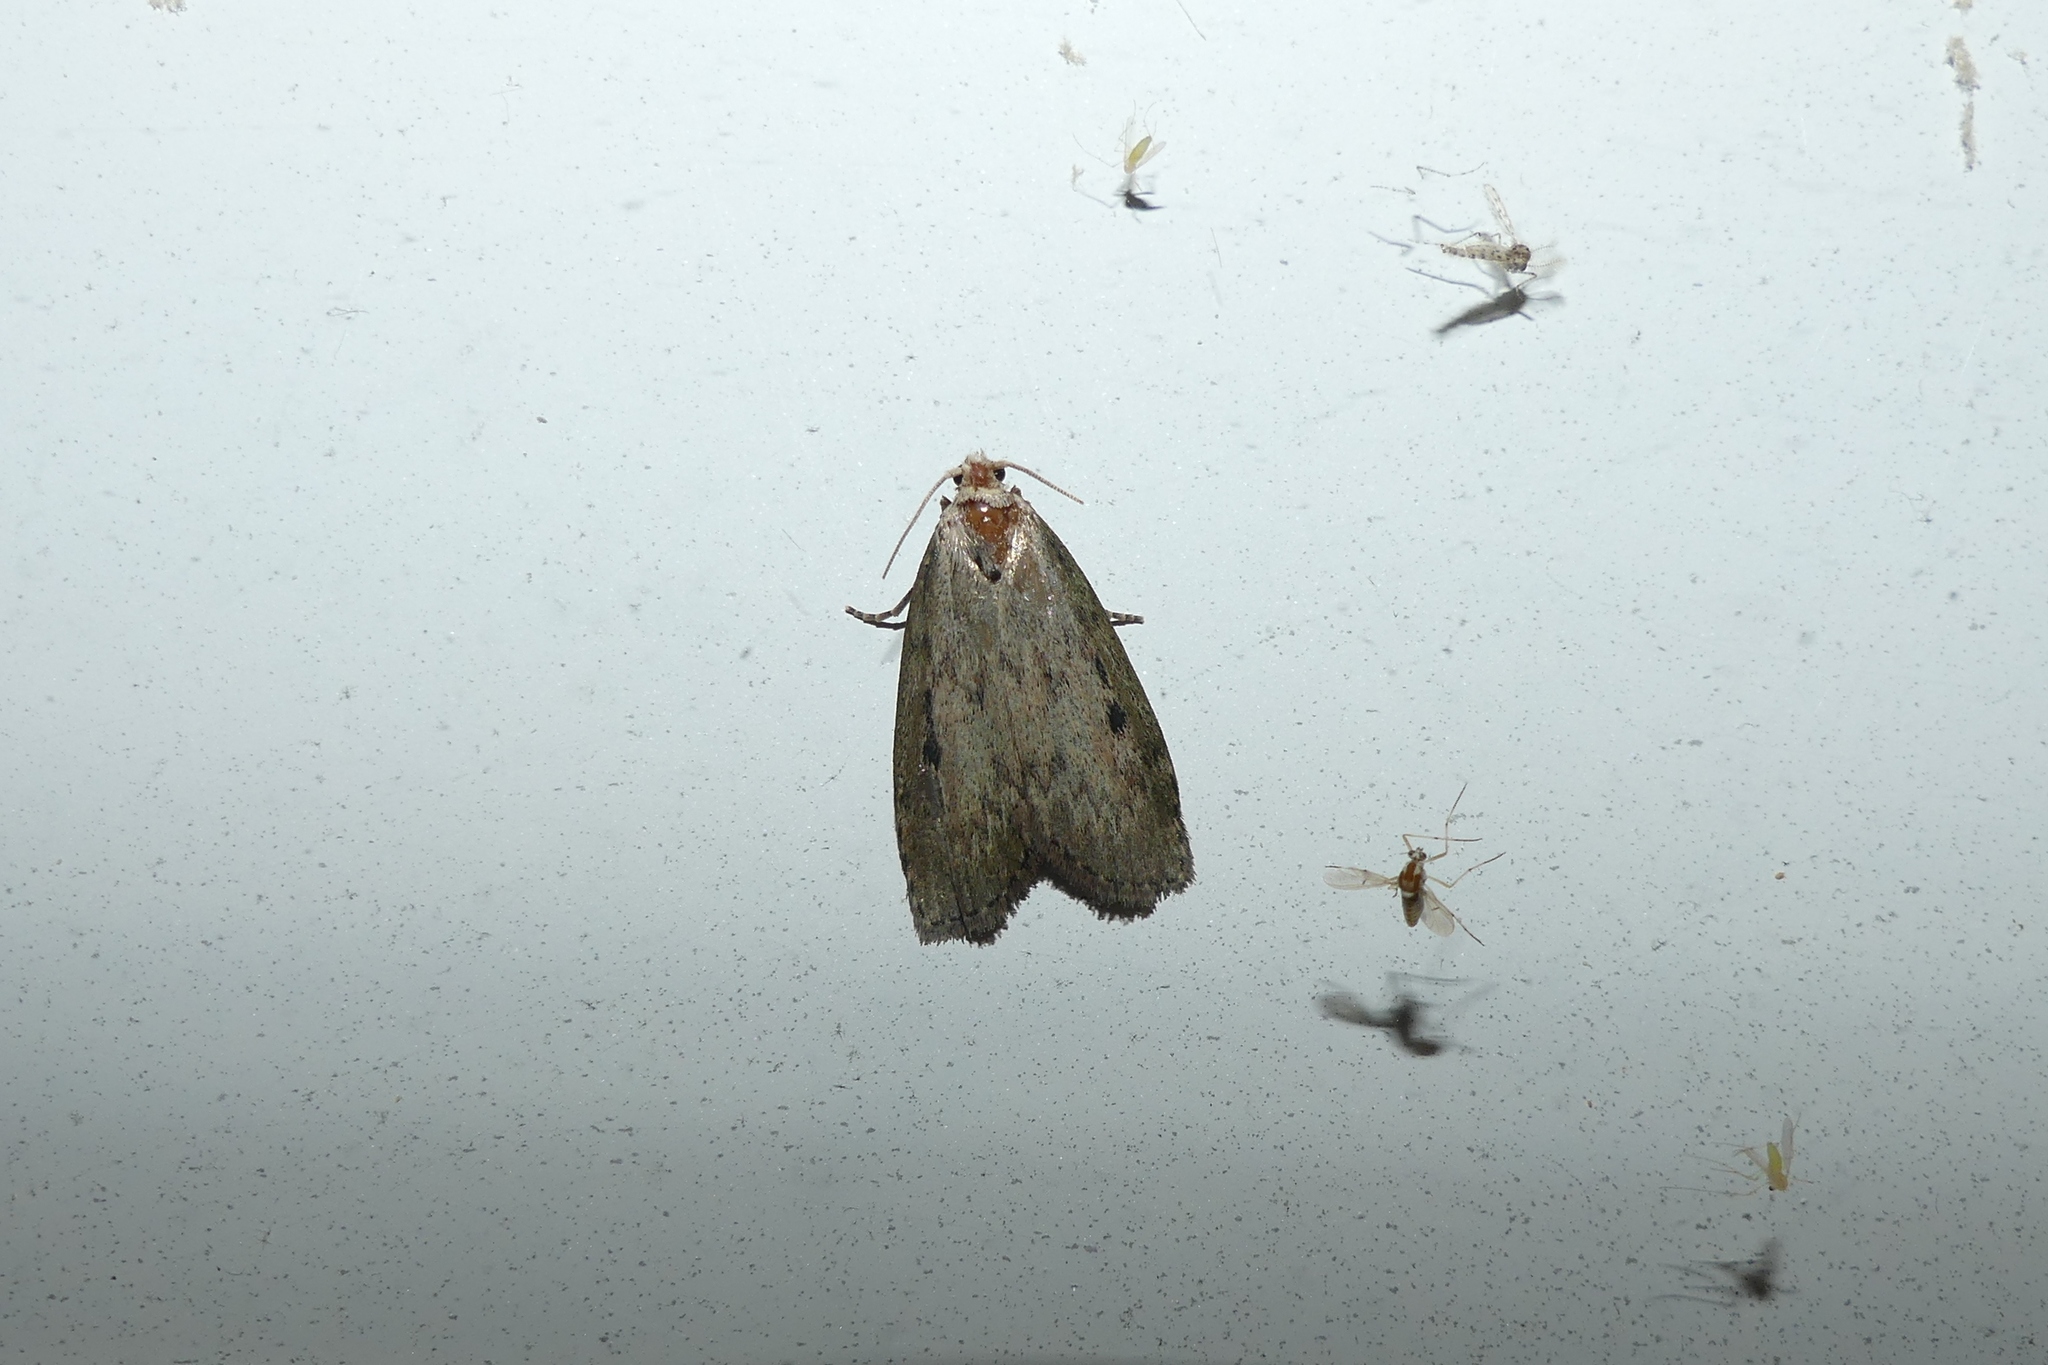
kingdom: Animalia
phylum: Arthropoda
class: Insecta
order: Lepidoptera
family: Pyralidae
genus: Aphomia
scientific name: Aphomia sociella
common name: Bee moth
